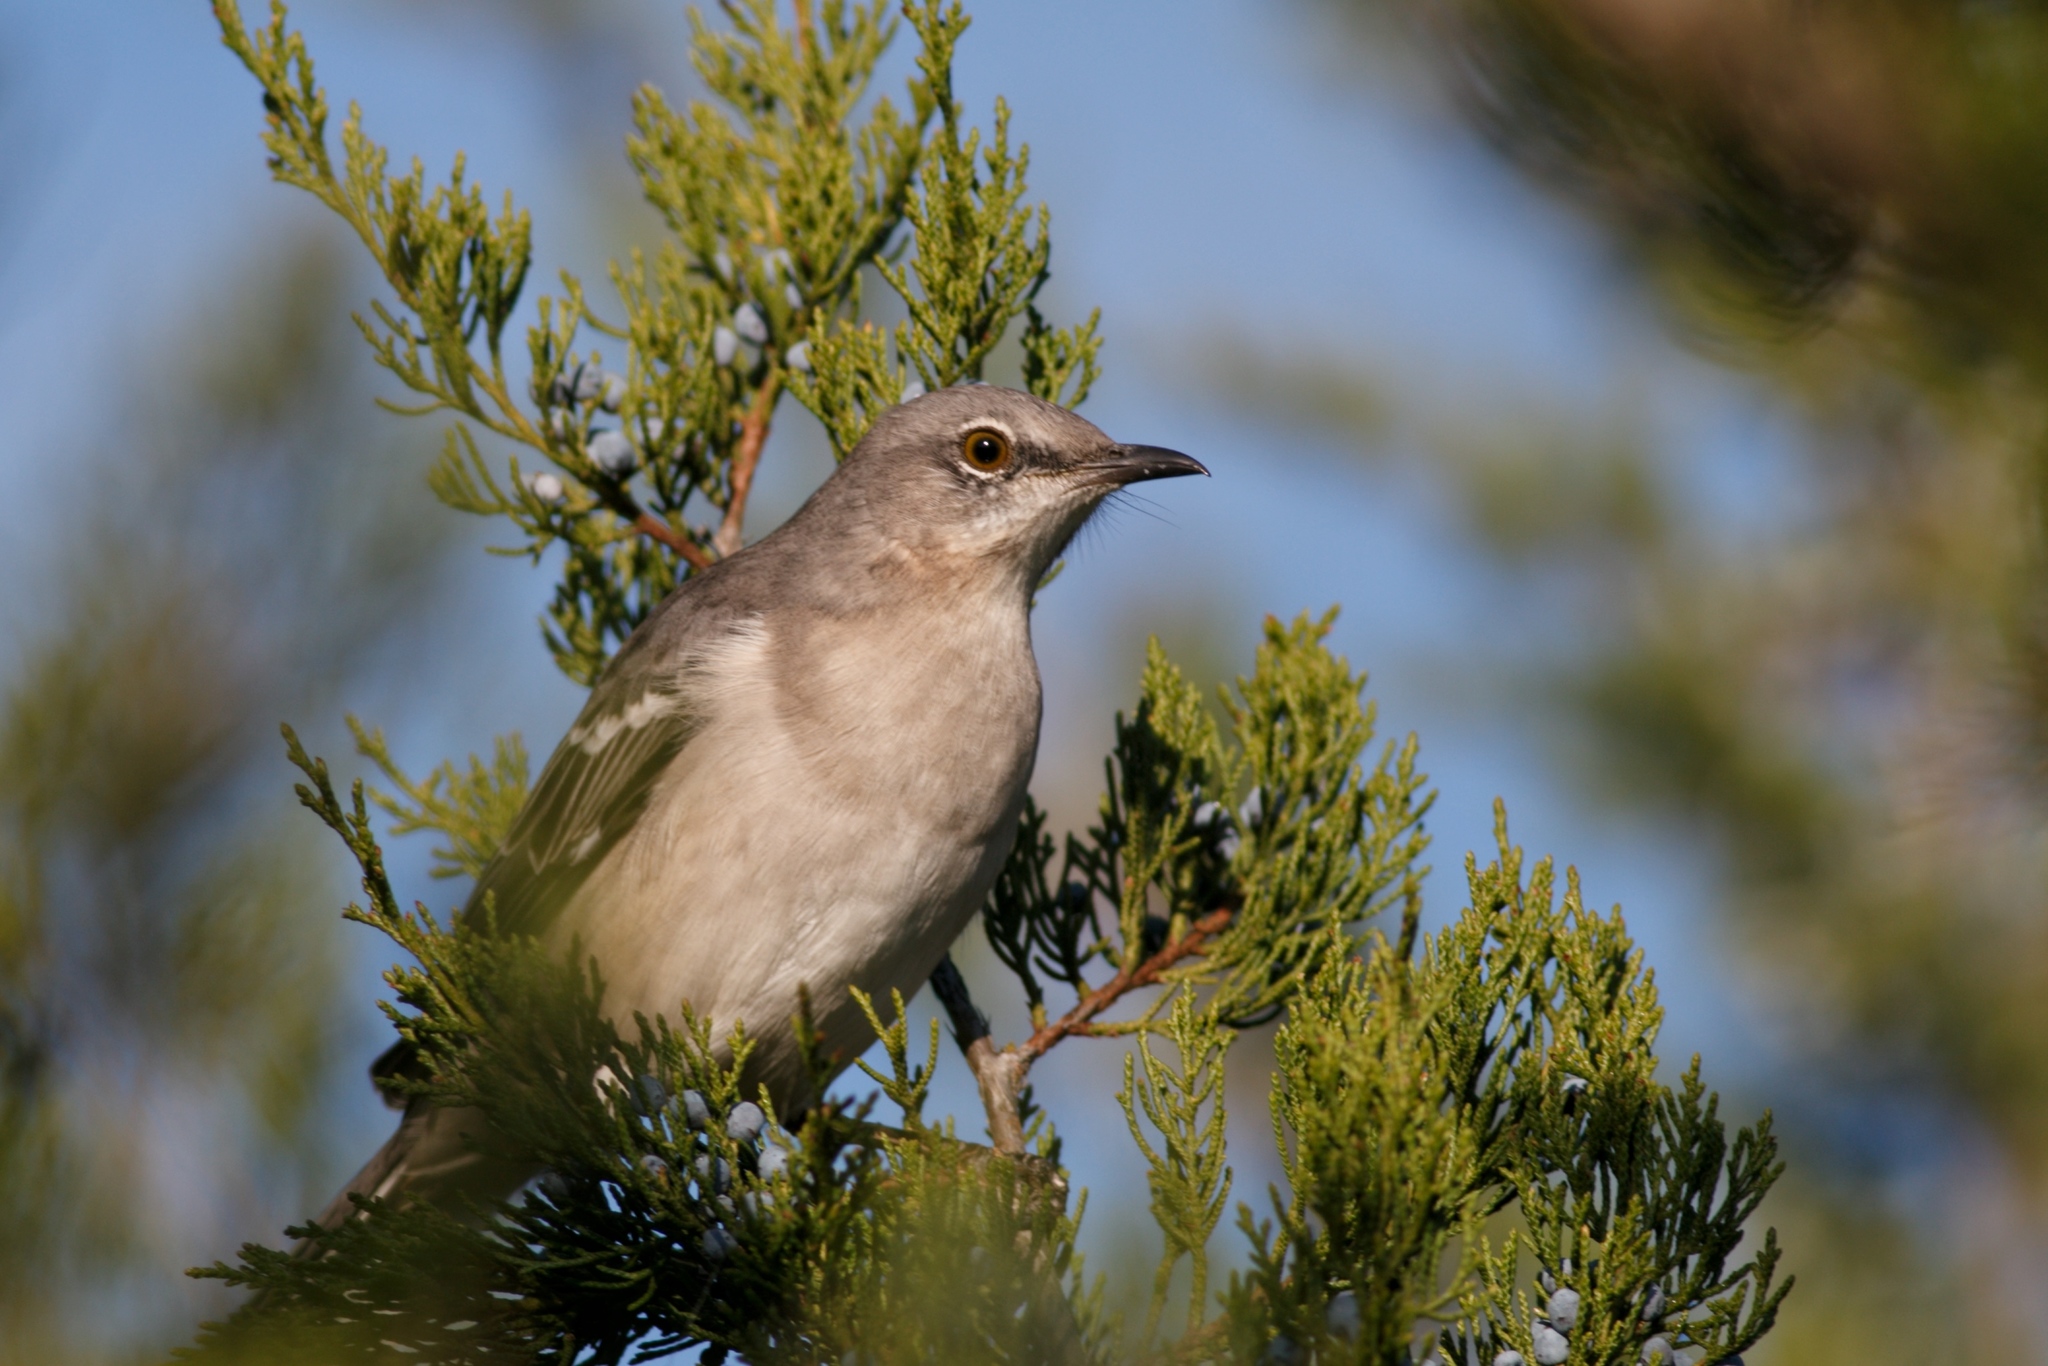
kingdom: Animalia
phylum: Chordata
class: Aves
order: Passeriformes
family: Mimidae
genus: Mimus
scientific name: Mimus polyglottos
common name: Northern mockingbird
